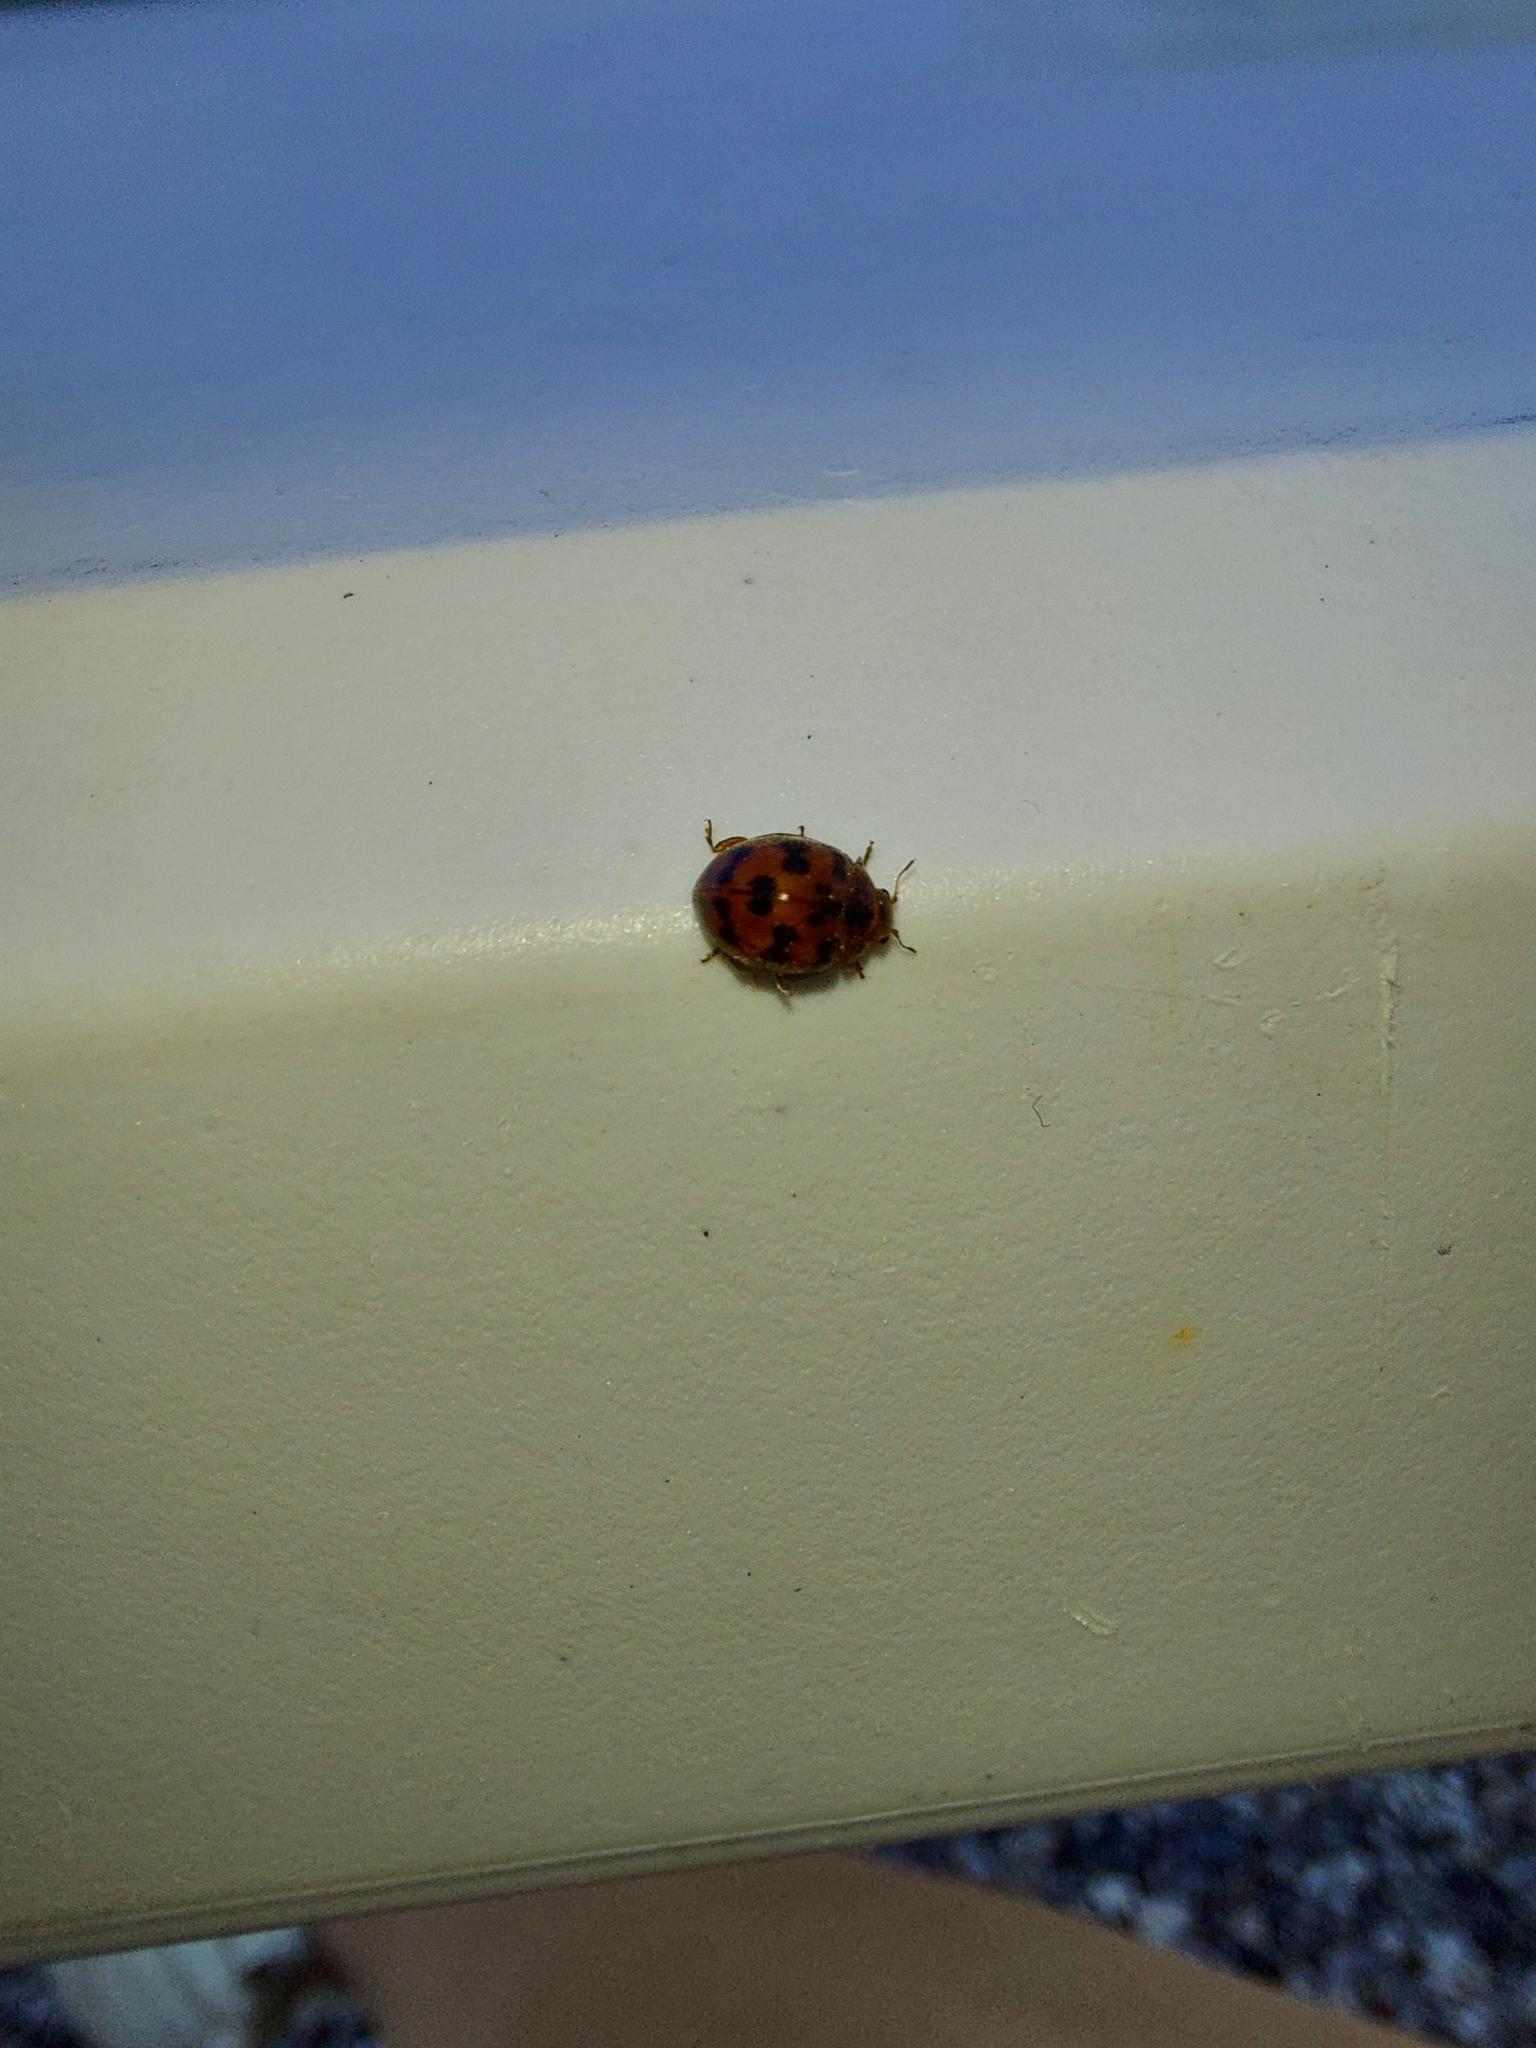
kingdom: Animalia
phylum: Arthropoda
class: Insecta
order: Coleoptera
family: Coccinellidae
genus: Subcoccinella
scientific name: Subcoccinella vigintiquatuorpunctata
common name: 24-spot ladybird
